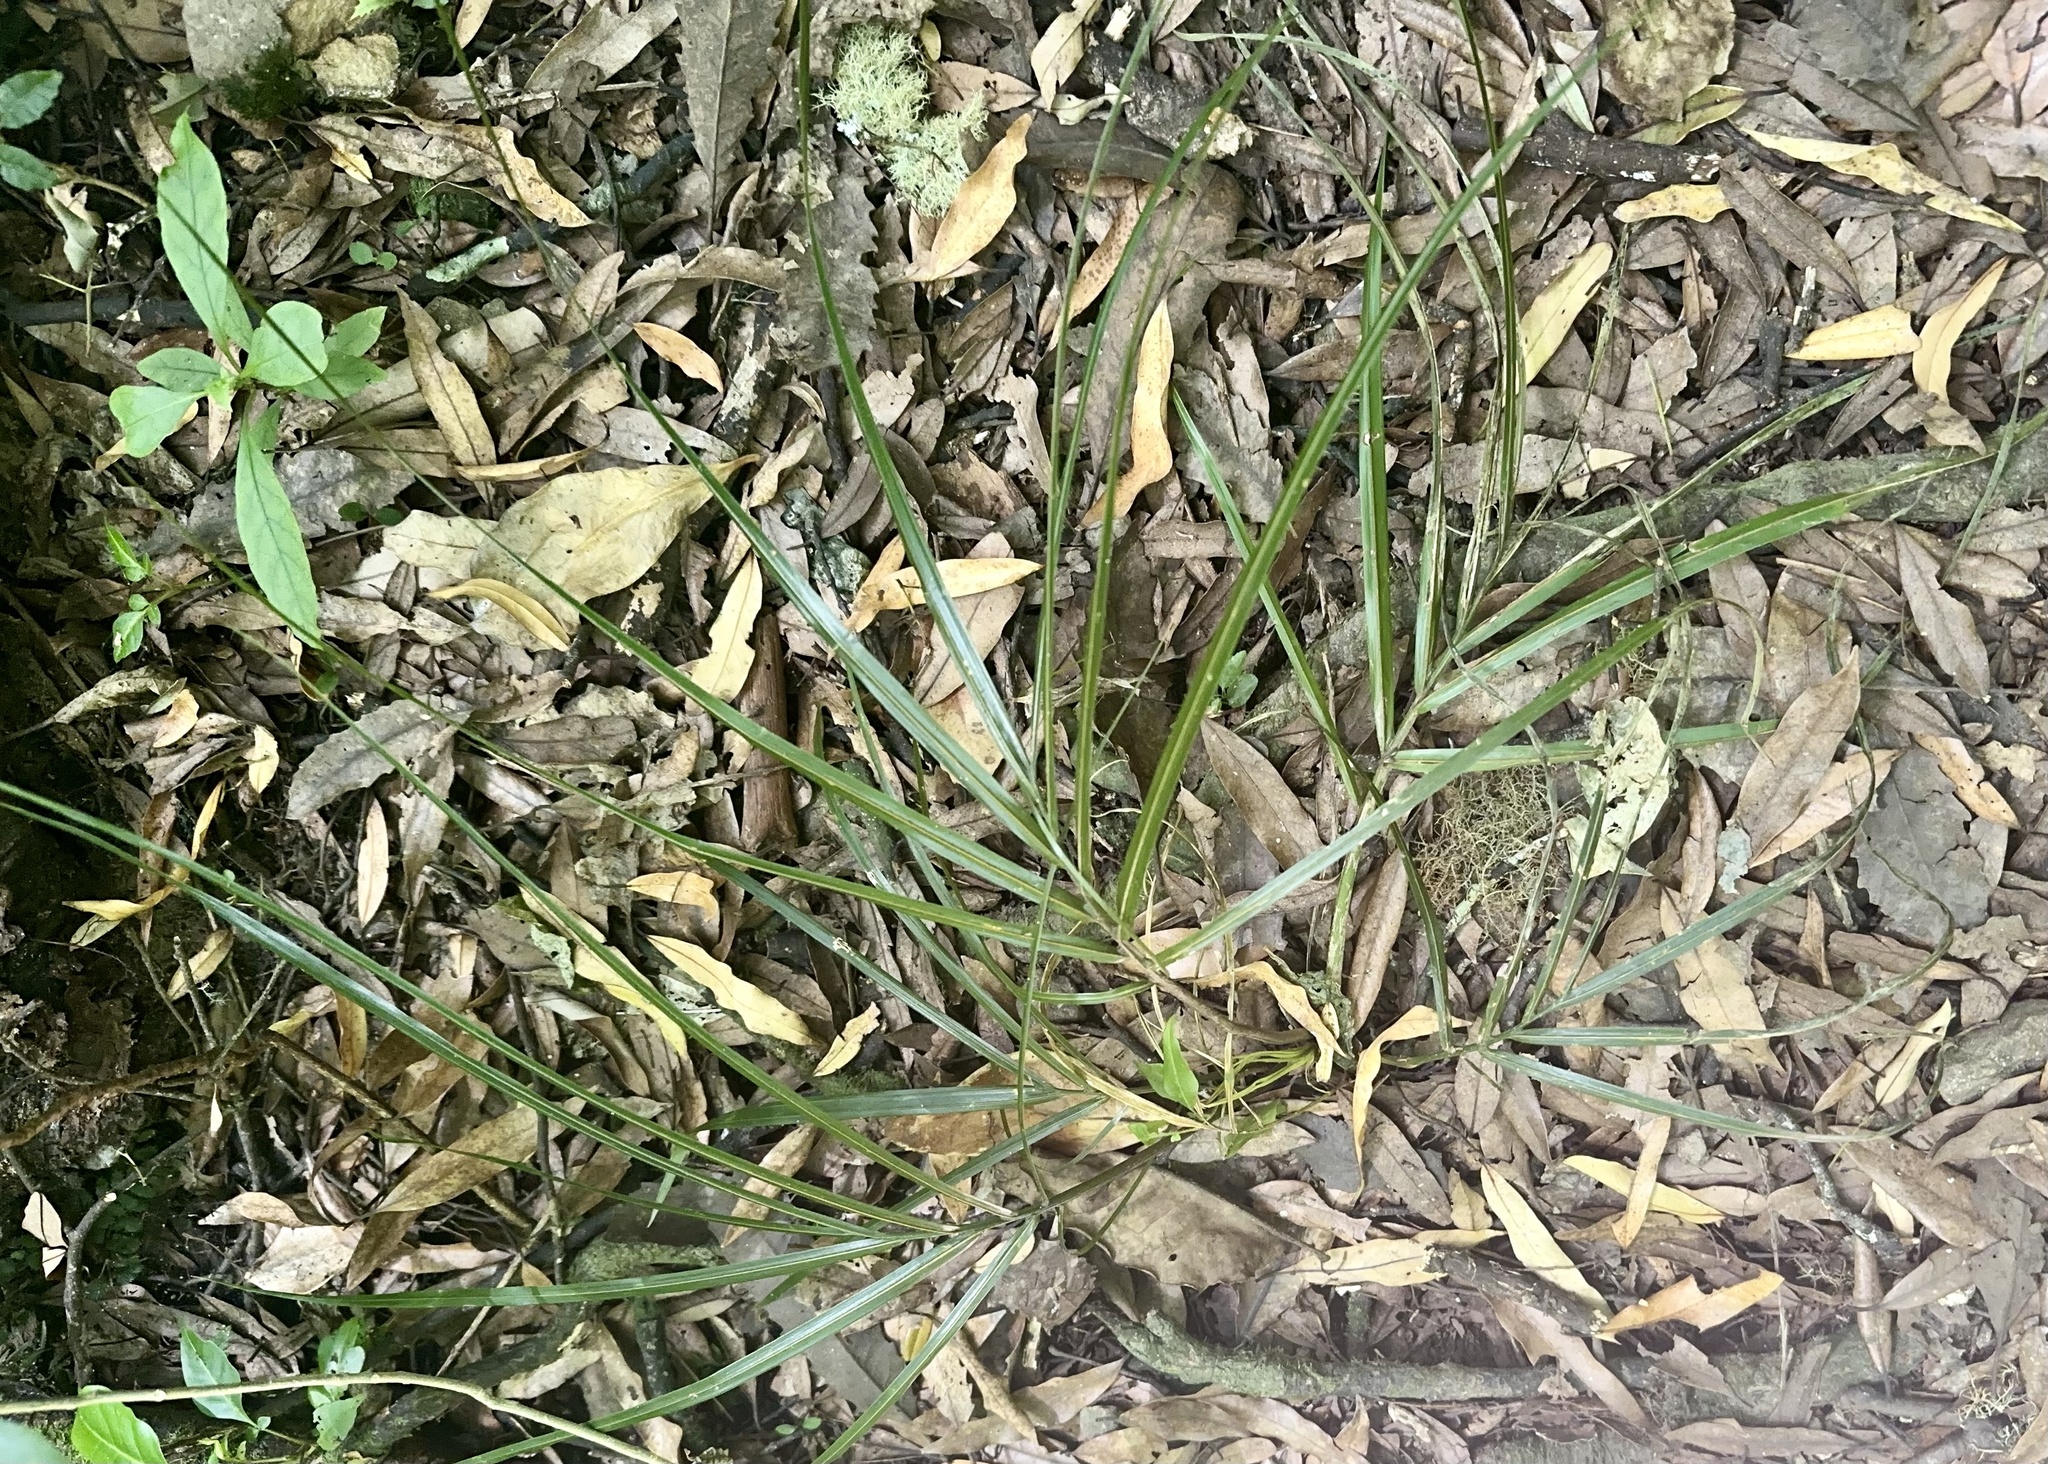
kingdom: Plantae
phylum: Tracheophyta
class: Liliopsida
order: Arecales
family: Arecaceae
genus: Rhopalostylis
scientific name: Rhopalostylis sapida
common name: Feather-duster palm
